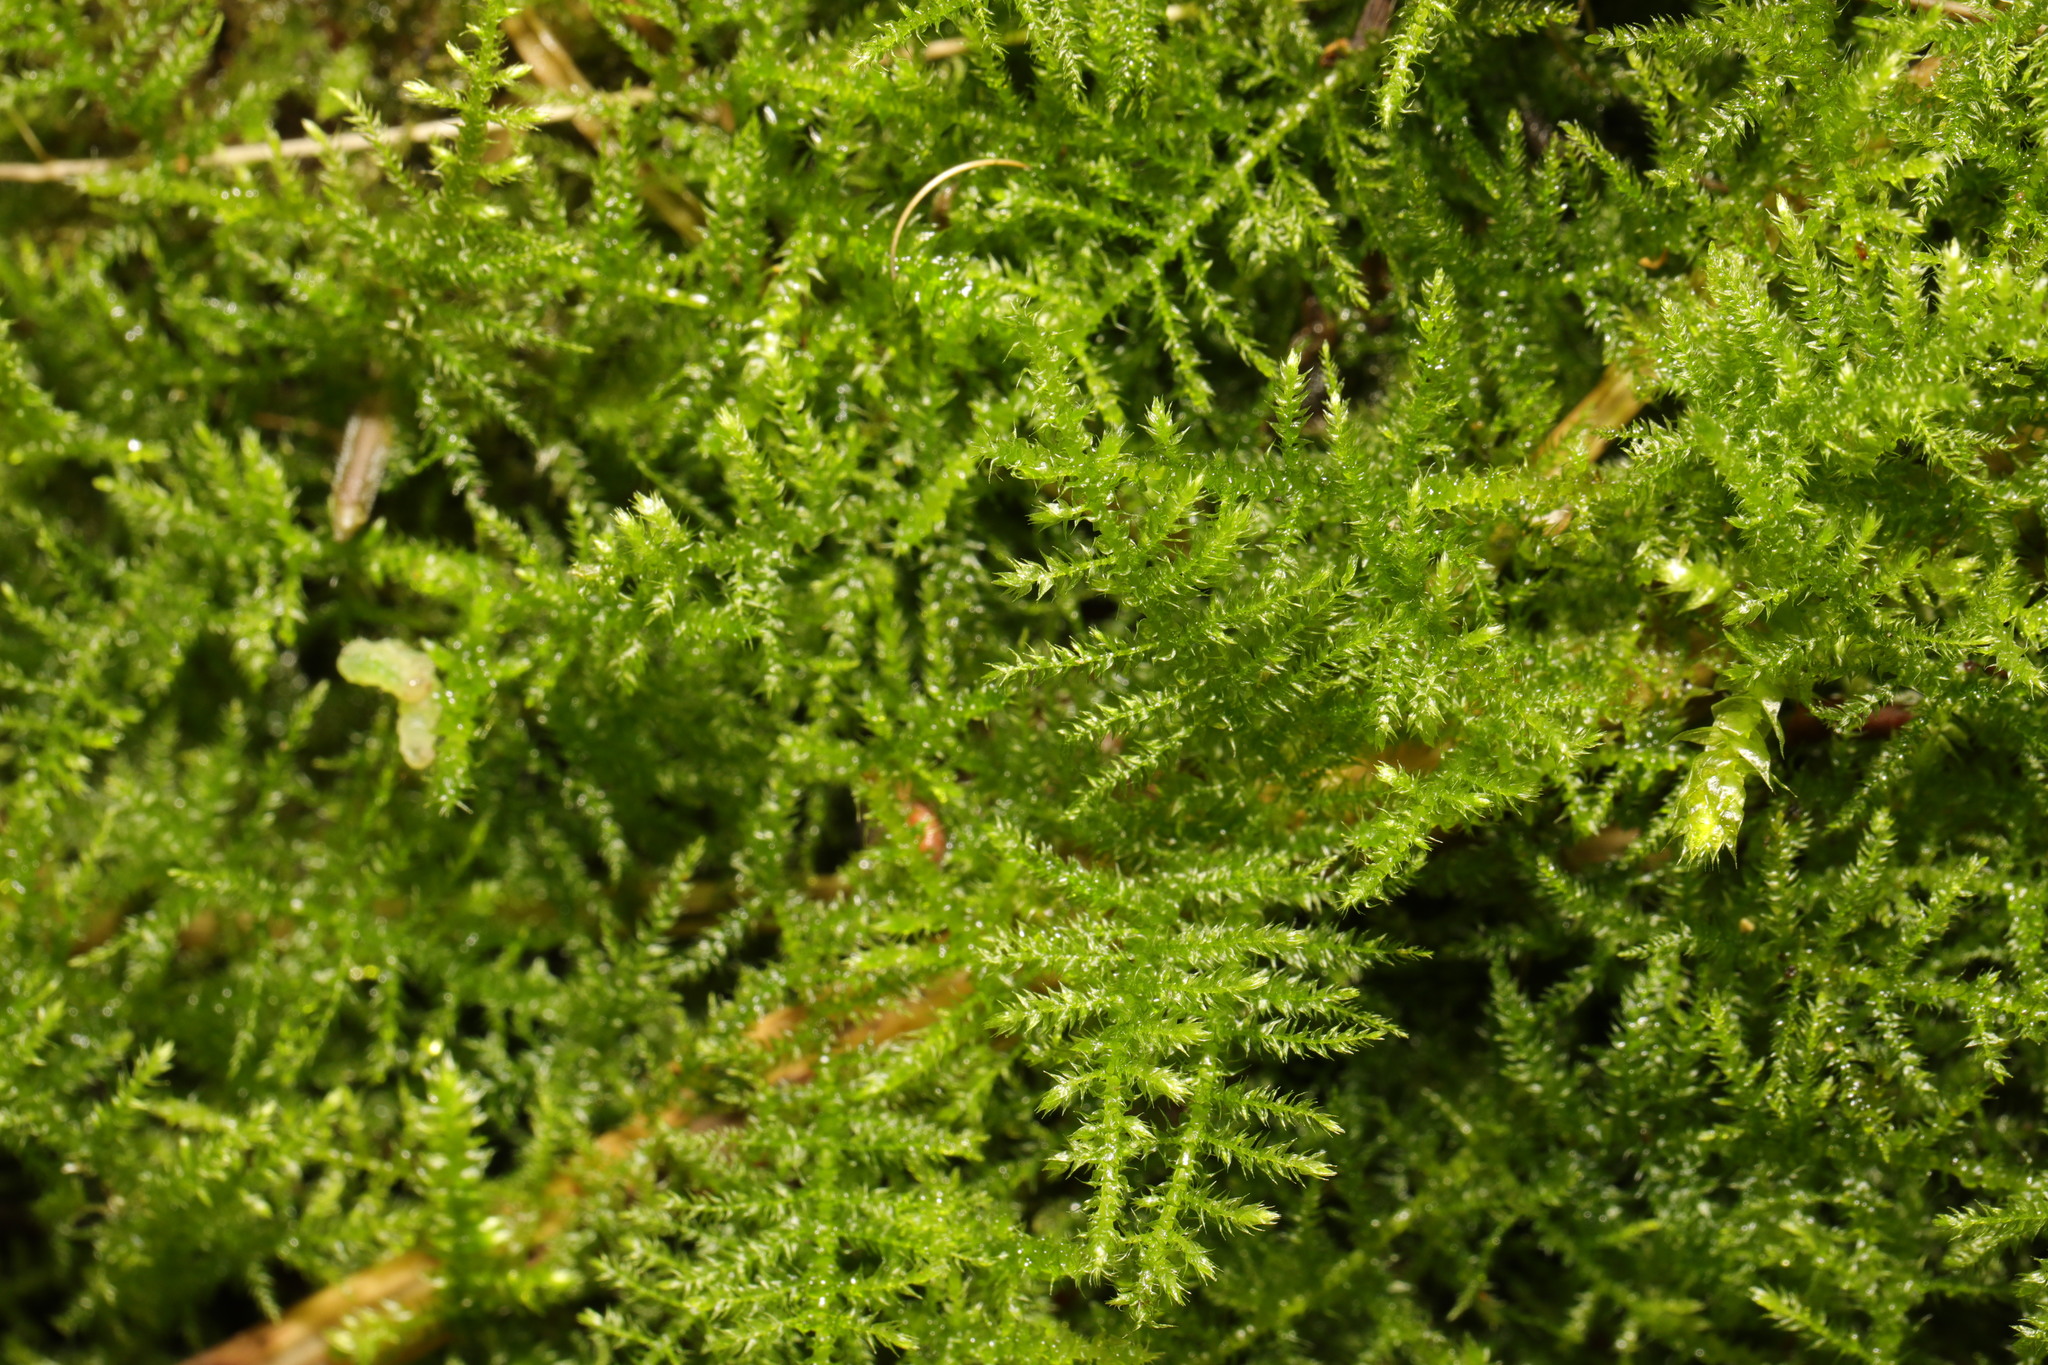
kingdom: Plantae
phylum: Bryophyta
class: Bryopsida
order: Hypnales
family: Brachytheciaceae
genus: Kindbergia
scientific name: Kindbergia praelonga
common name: Slender beaked moss
